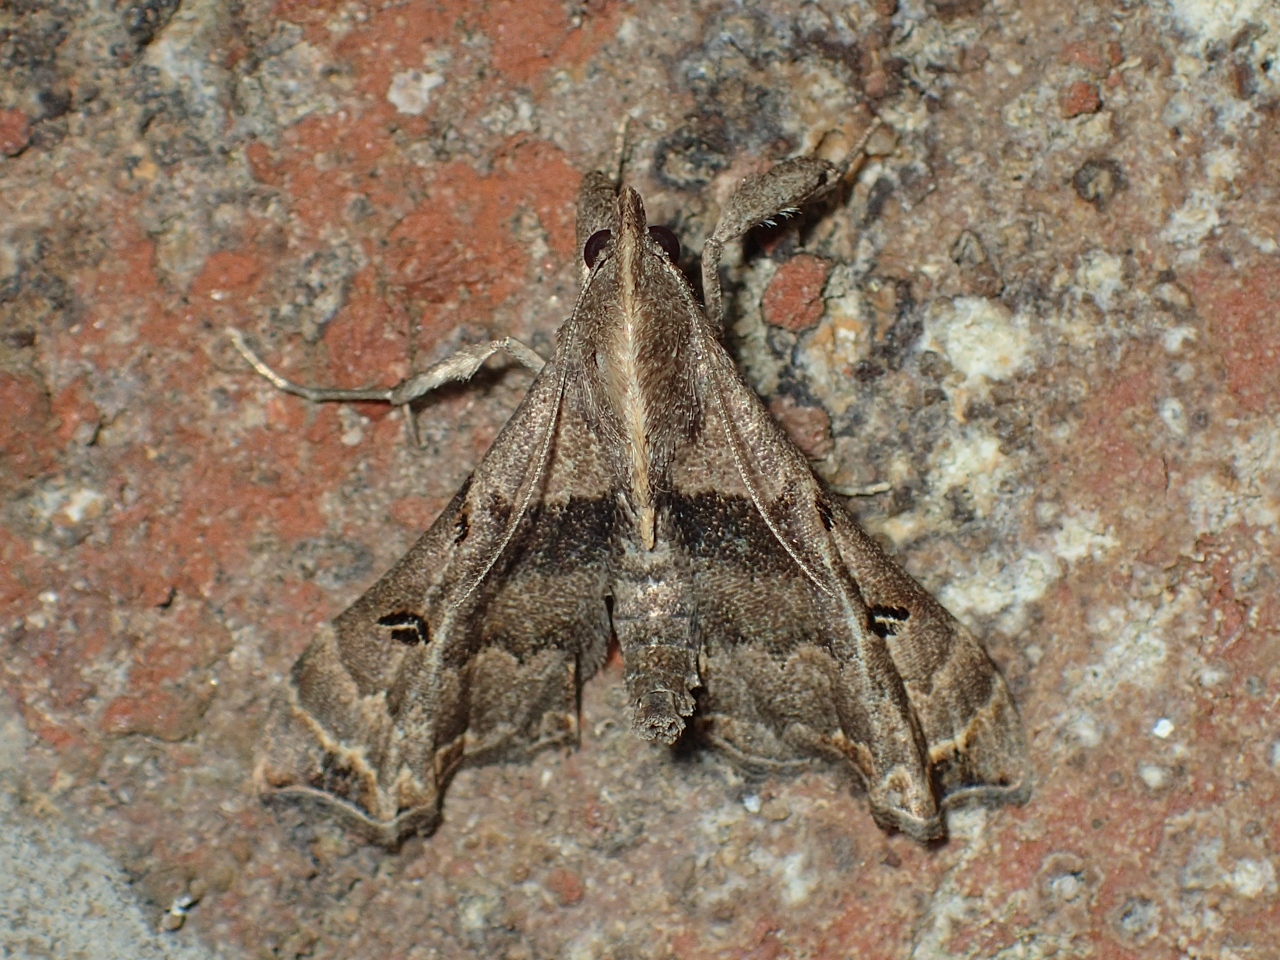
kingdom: Animalia
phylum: Arthropoda
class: Insecta
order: Lepidoptera
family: Erebidae
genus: Palthis
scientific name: Palthis asopialis
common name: Faint-spotted palthis moth
